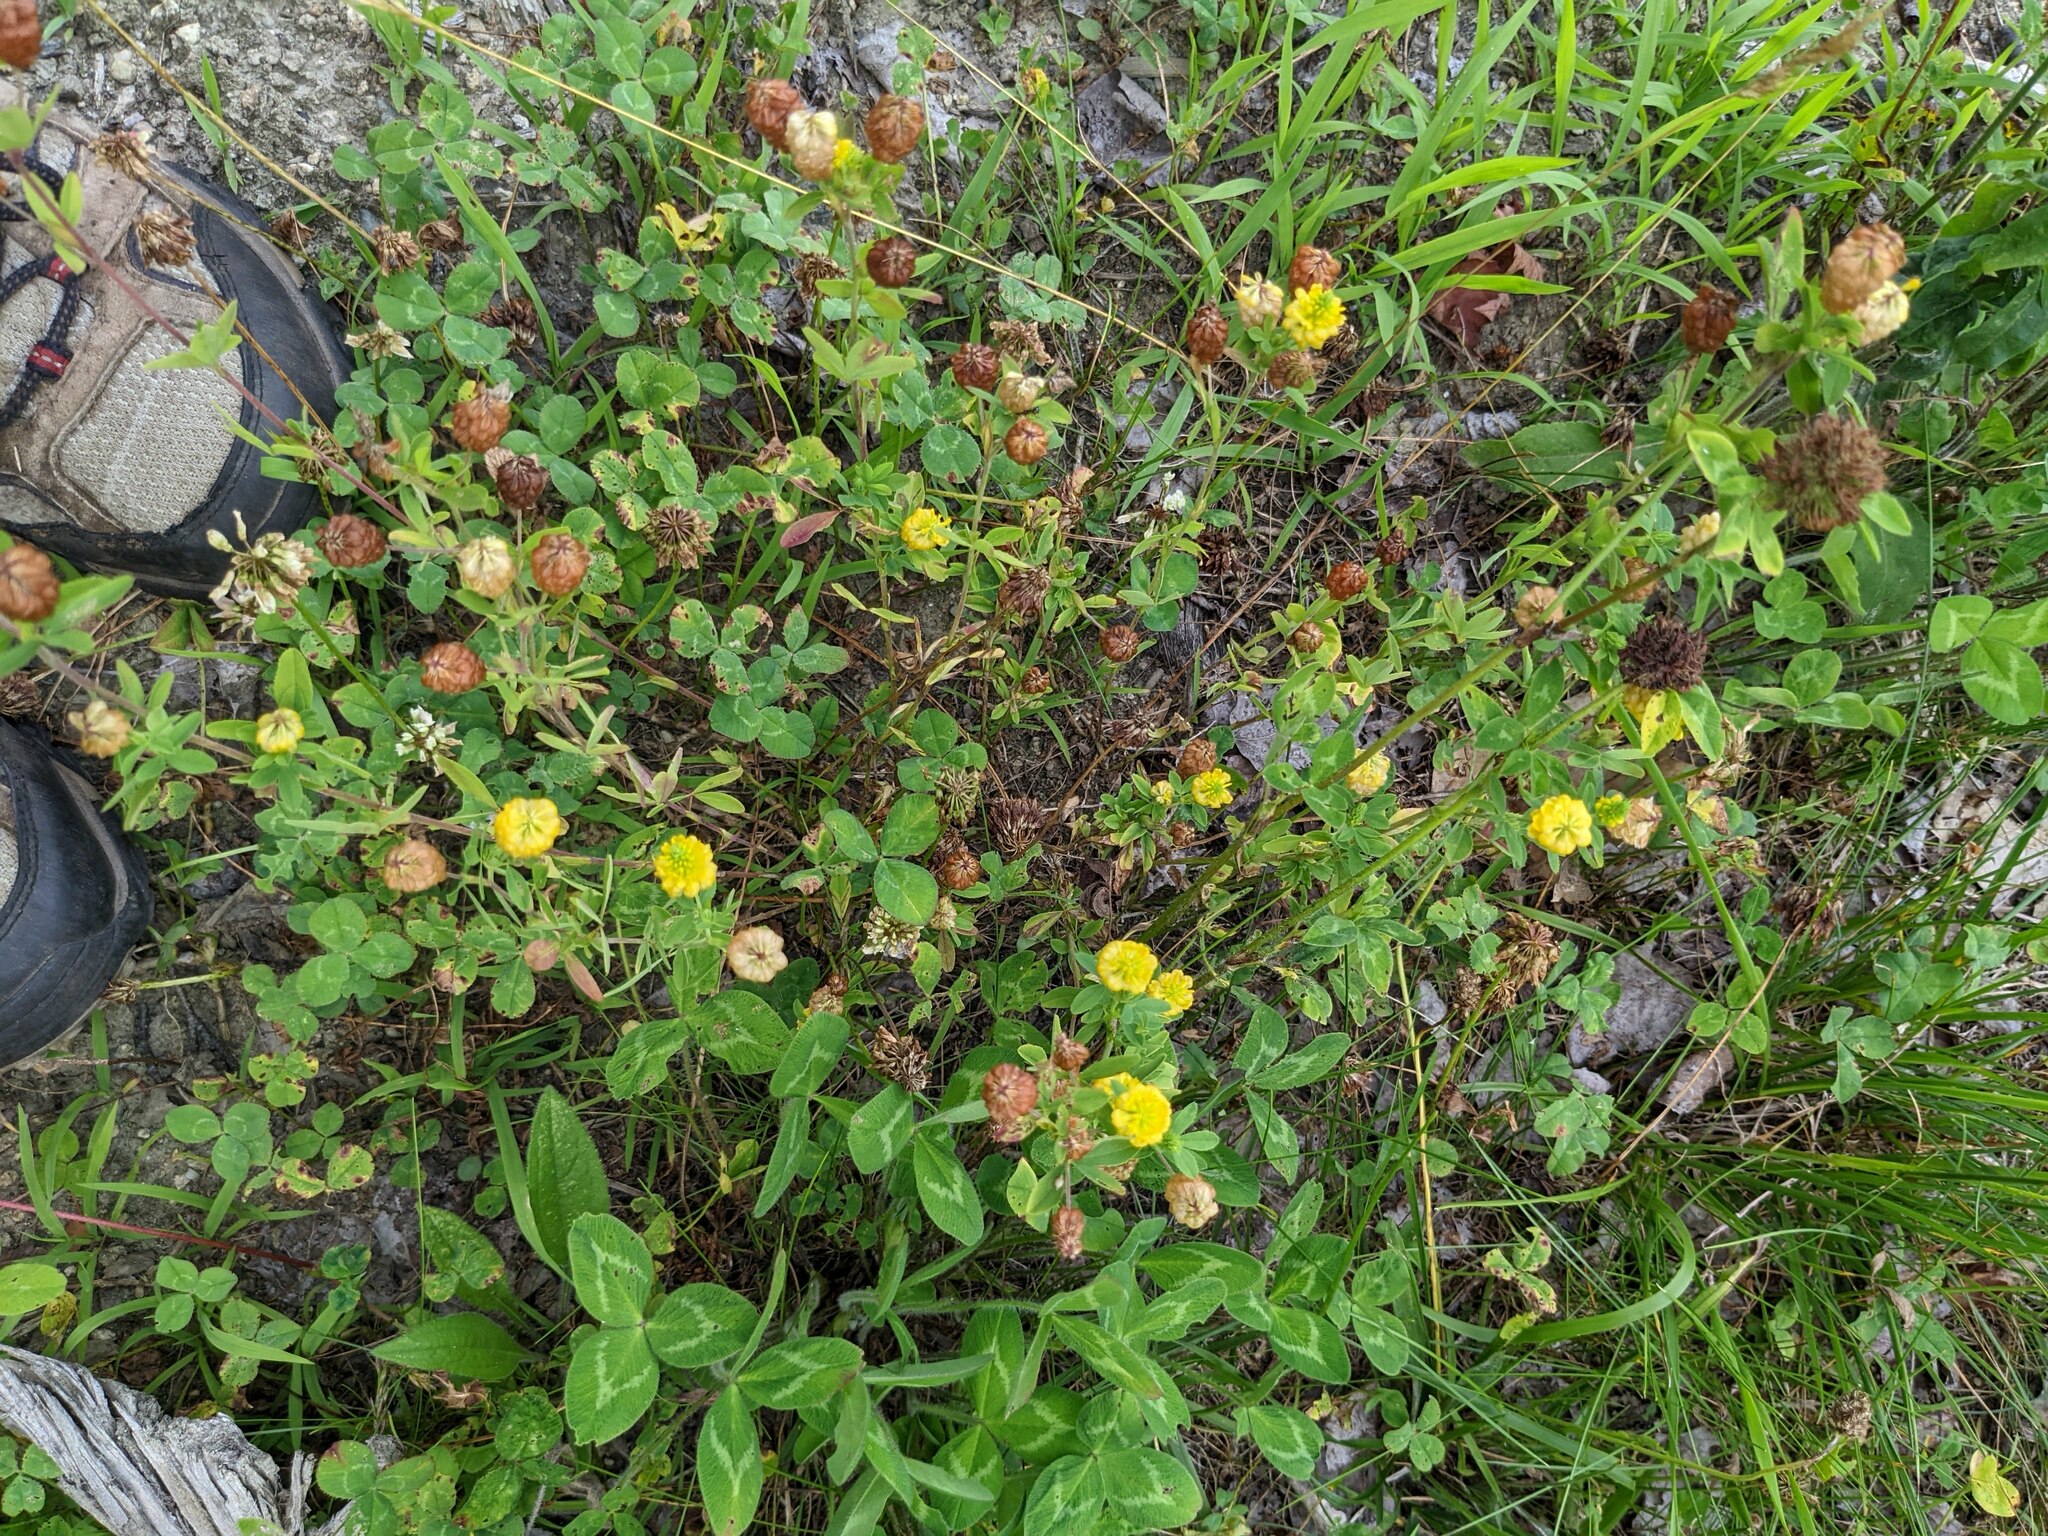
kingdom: Plantae
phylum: Tracheophyta
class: Magnoliopsida
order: Fabales
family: Fabaceae
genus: Trifolium
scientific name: Trifolium aureum
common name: Golden clover
